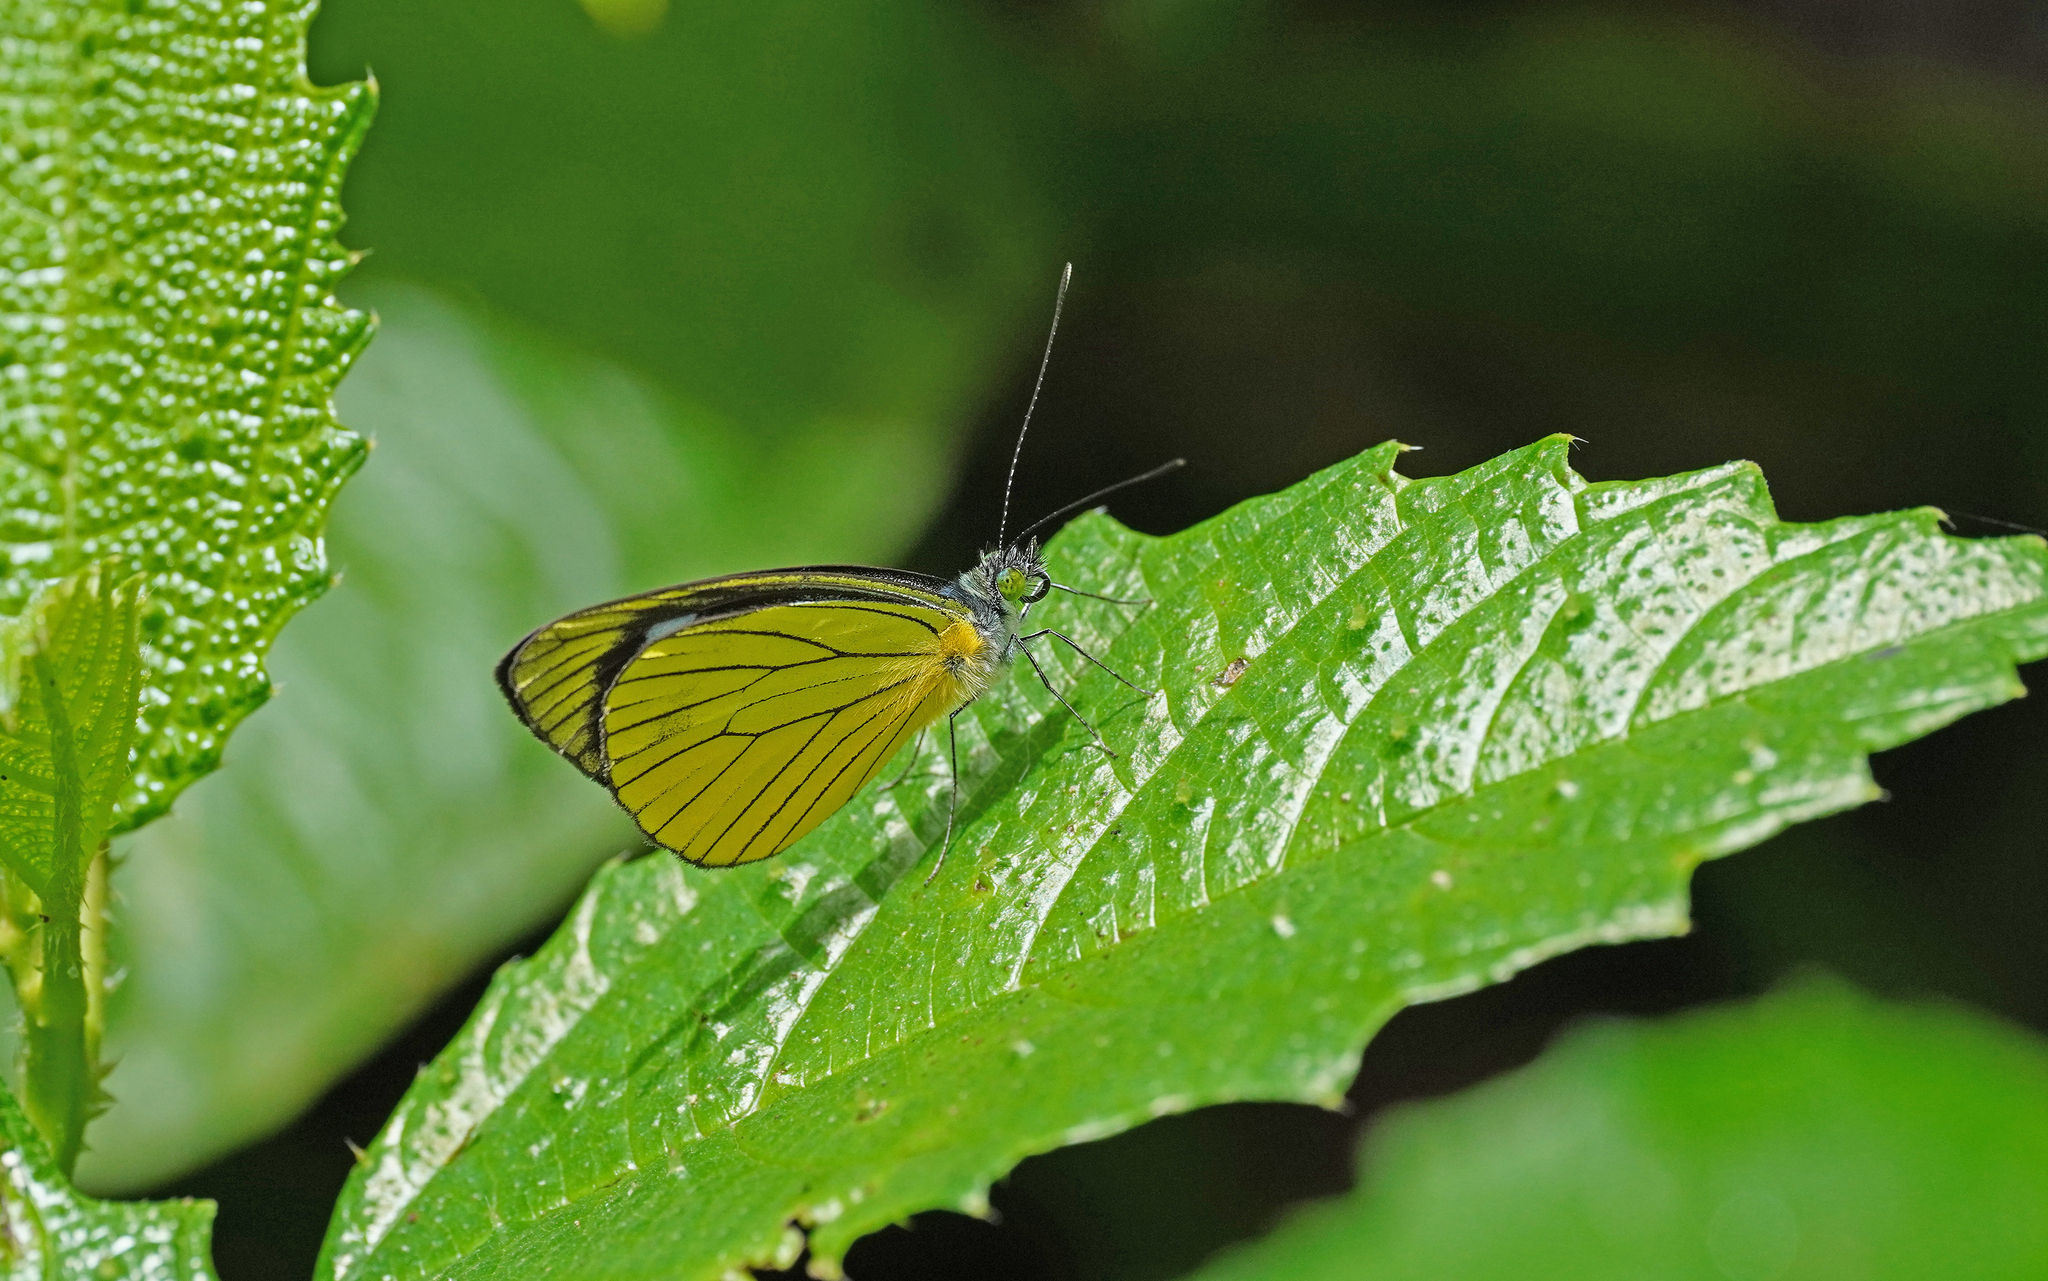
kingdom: Animalia
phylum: Arthropoda
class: Insecta
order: Lepidoptera
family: Pieridae
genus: Leptophobia
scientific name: Leptophobia caesia
